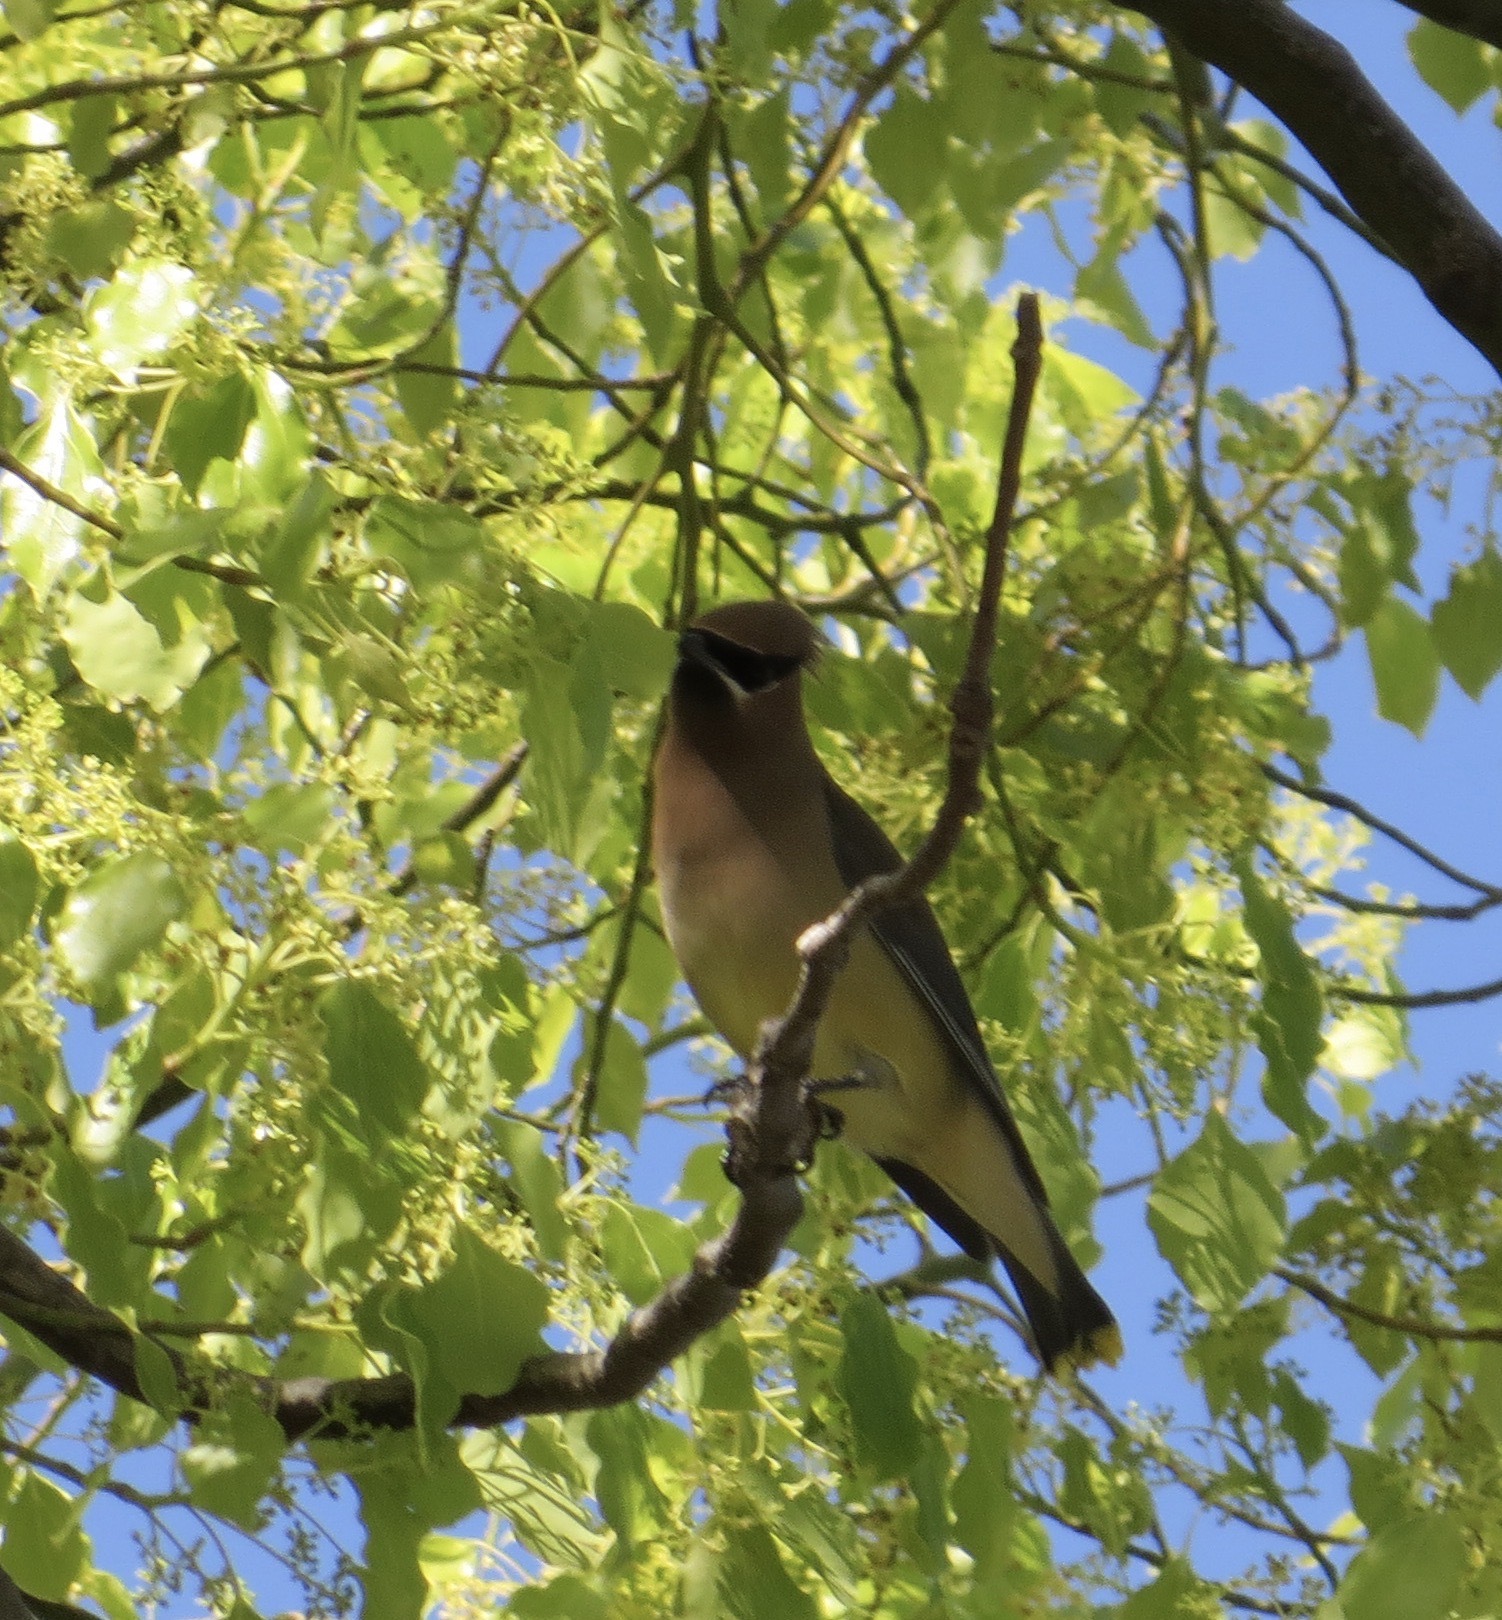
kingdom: Animalia
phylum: Chordata
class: Aves
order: Passeriformes
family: Bombycillidae
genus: Bombycilla
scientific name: Bombycilla cedrorum
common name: Cedar waxwing
